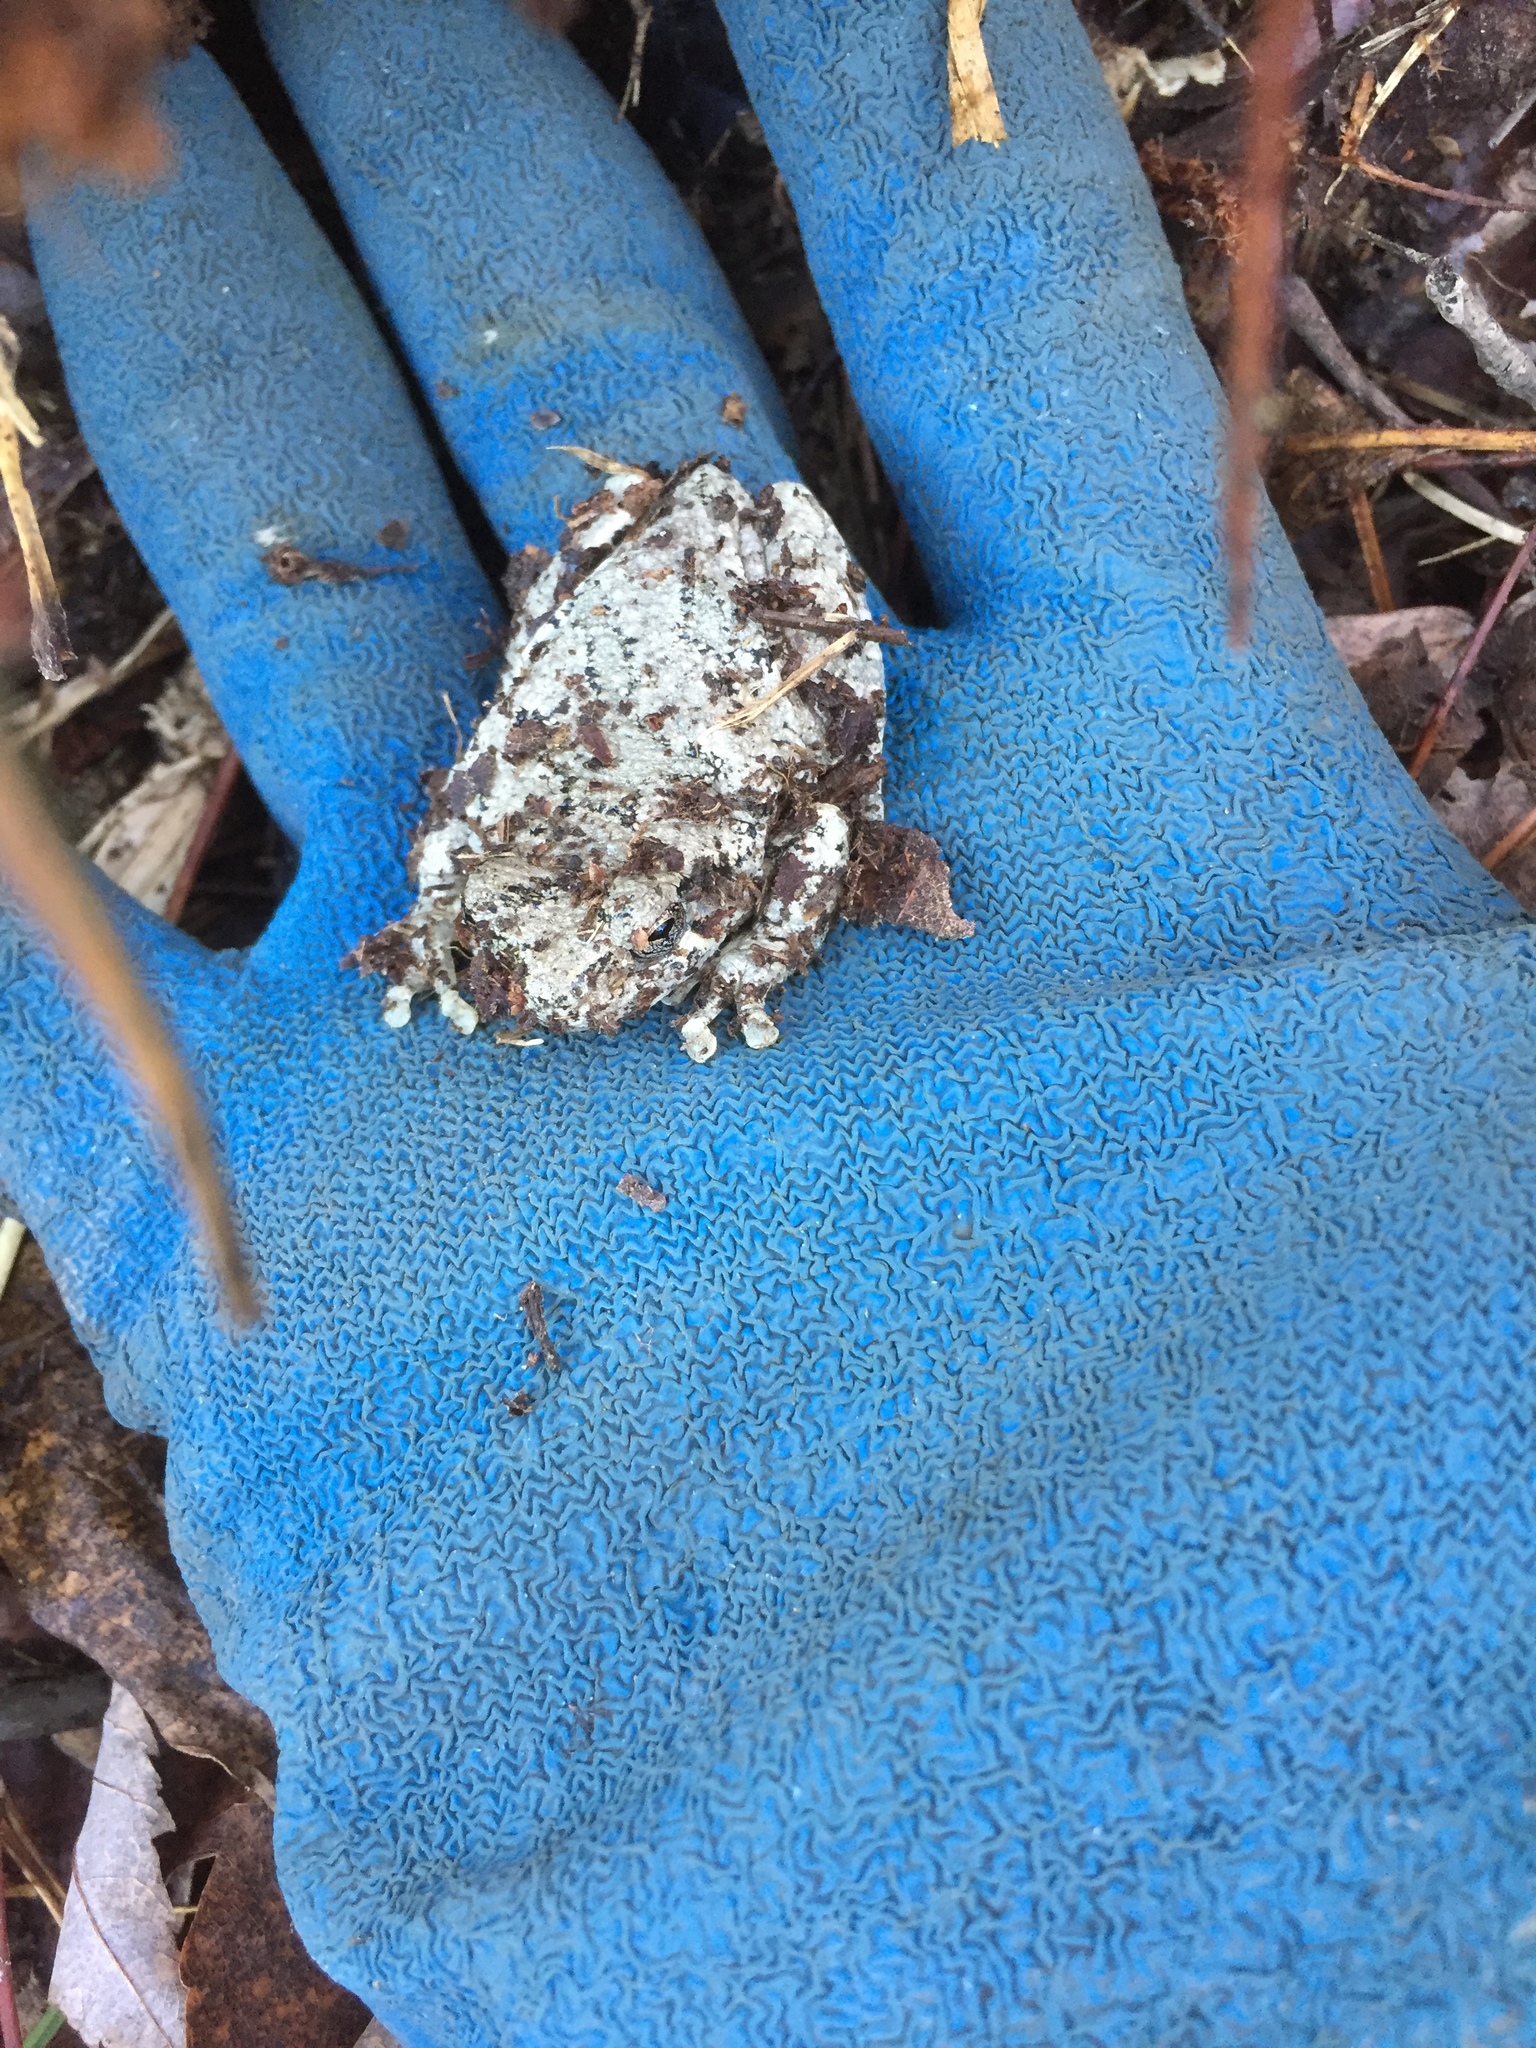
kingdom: Animalia
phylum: Chordata
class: Amphibia
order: Anura
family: Hylidae
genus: Dryophytes
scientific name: Dryophytes chrysoscelis
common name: Cope's gray treefrog
